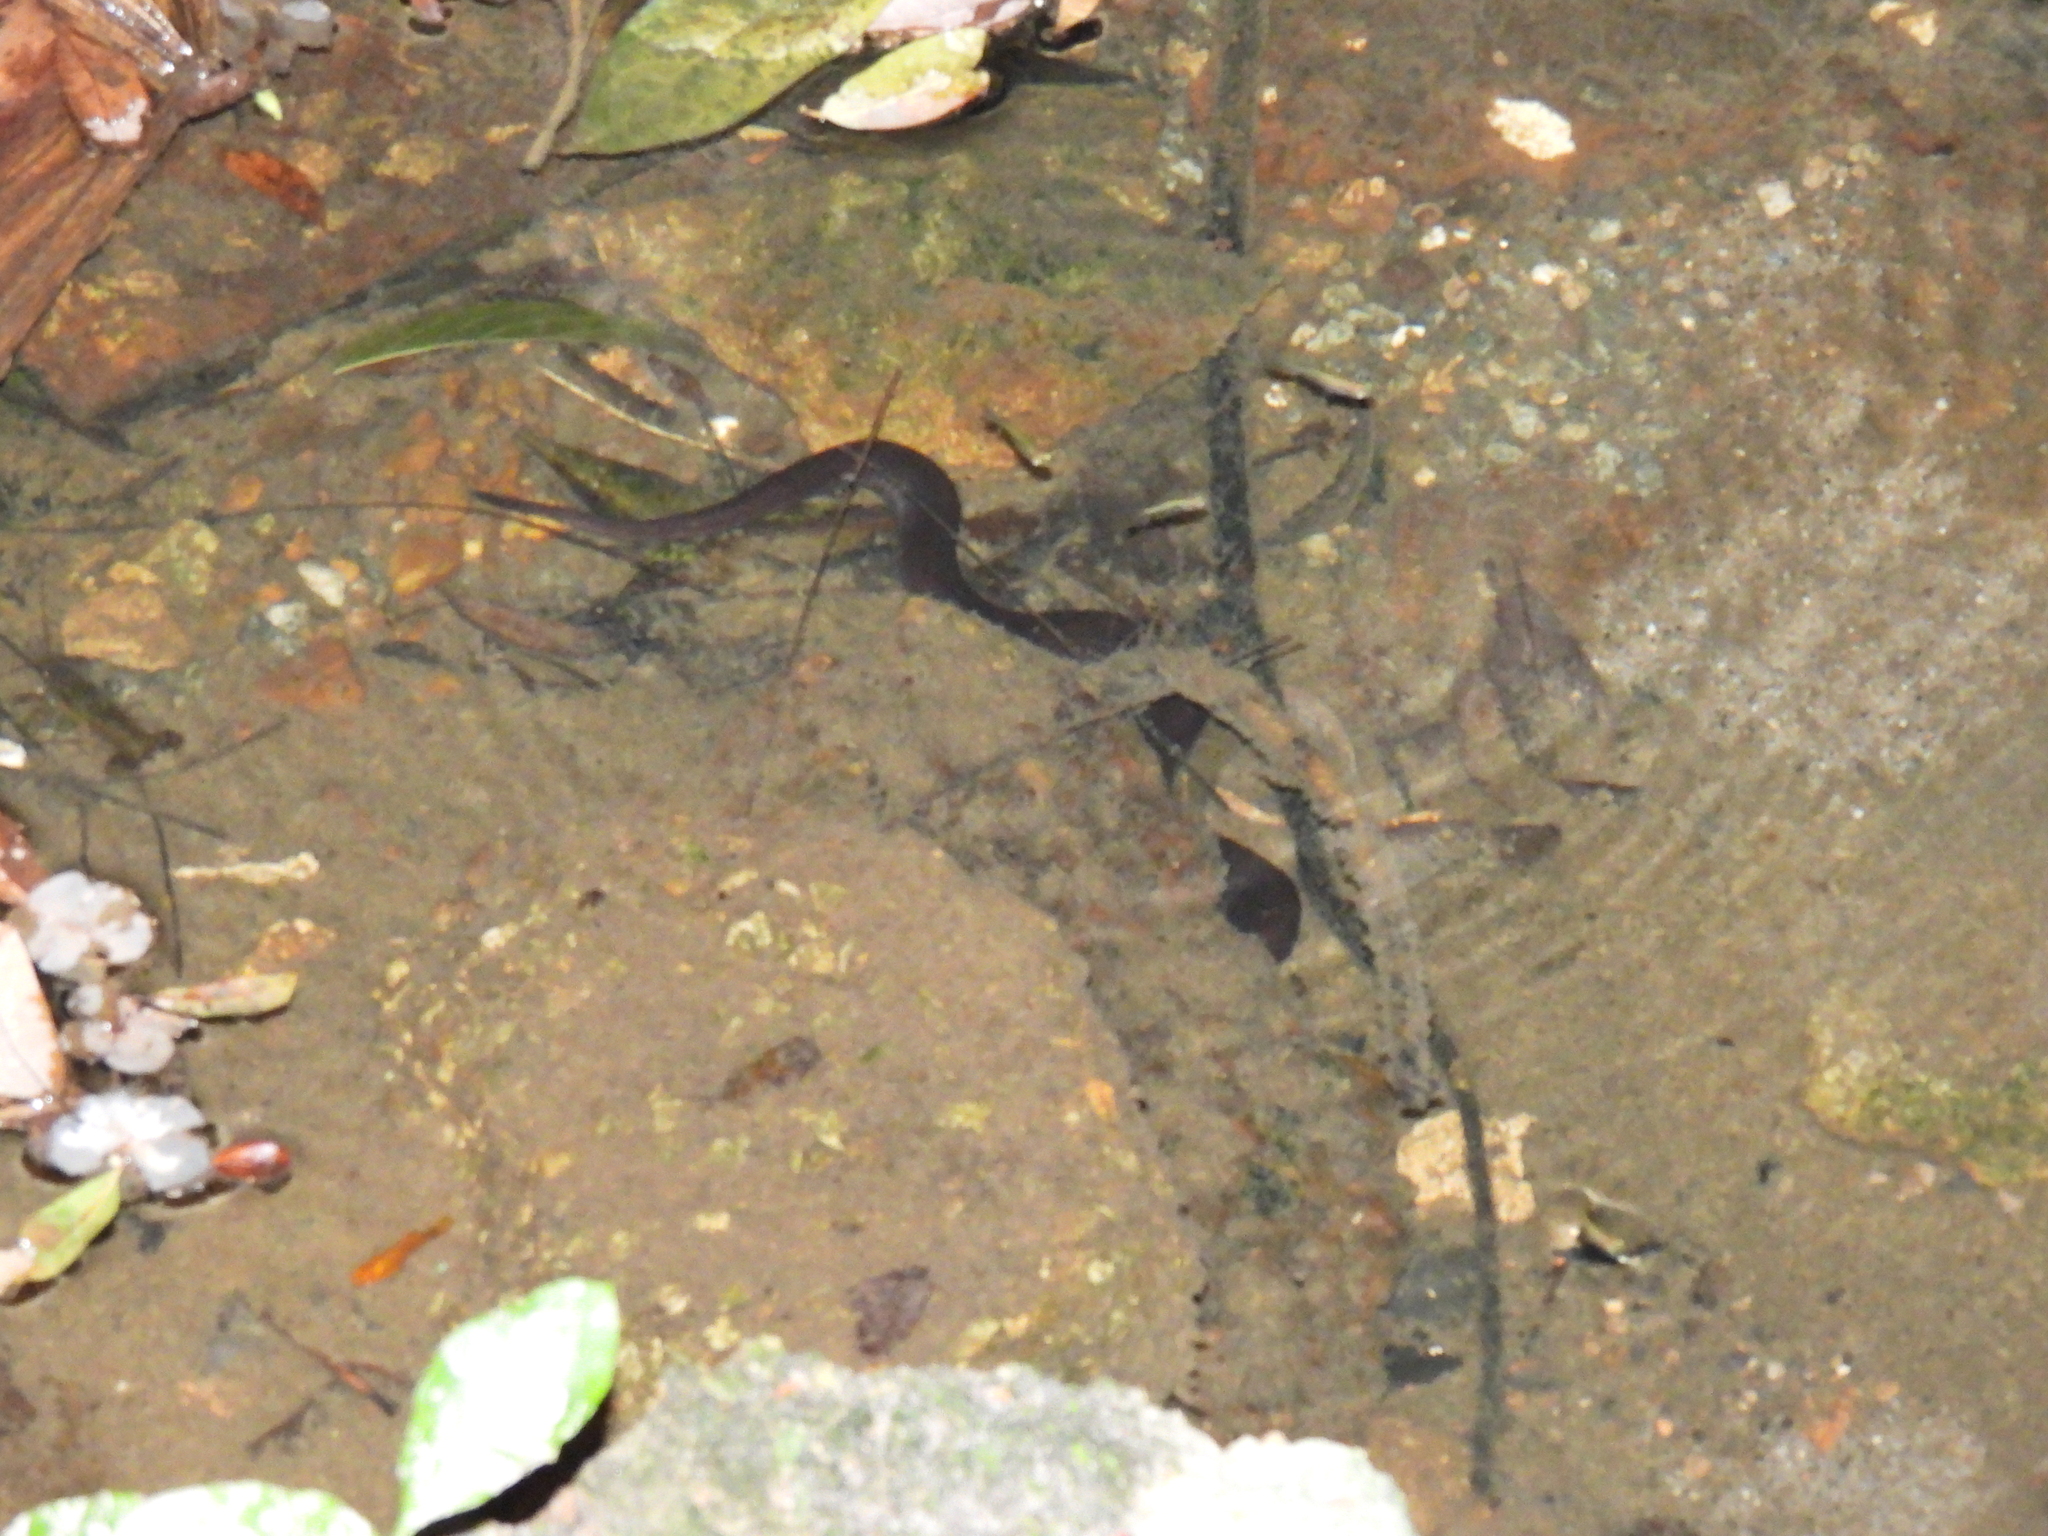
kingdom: Animalia
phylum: Chordata
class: Amphibia
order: Caudata
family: Amphiumidae
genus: Amphiuma
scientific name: Amphiuma means
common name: Two-toed amphiuma
